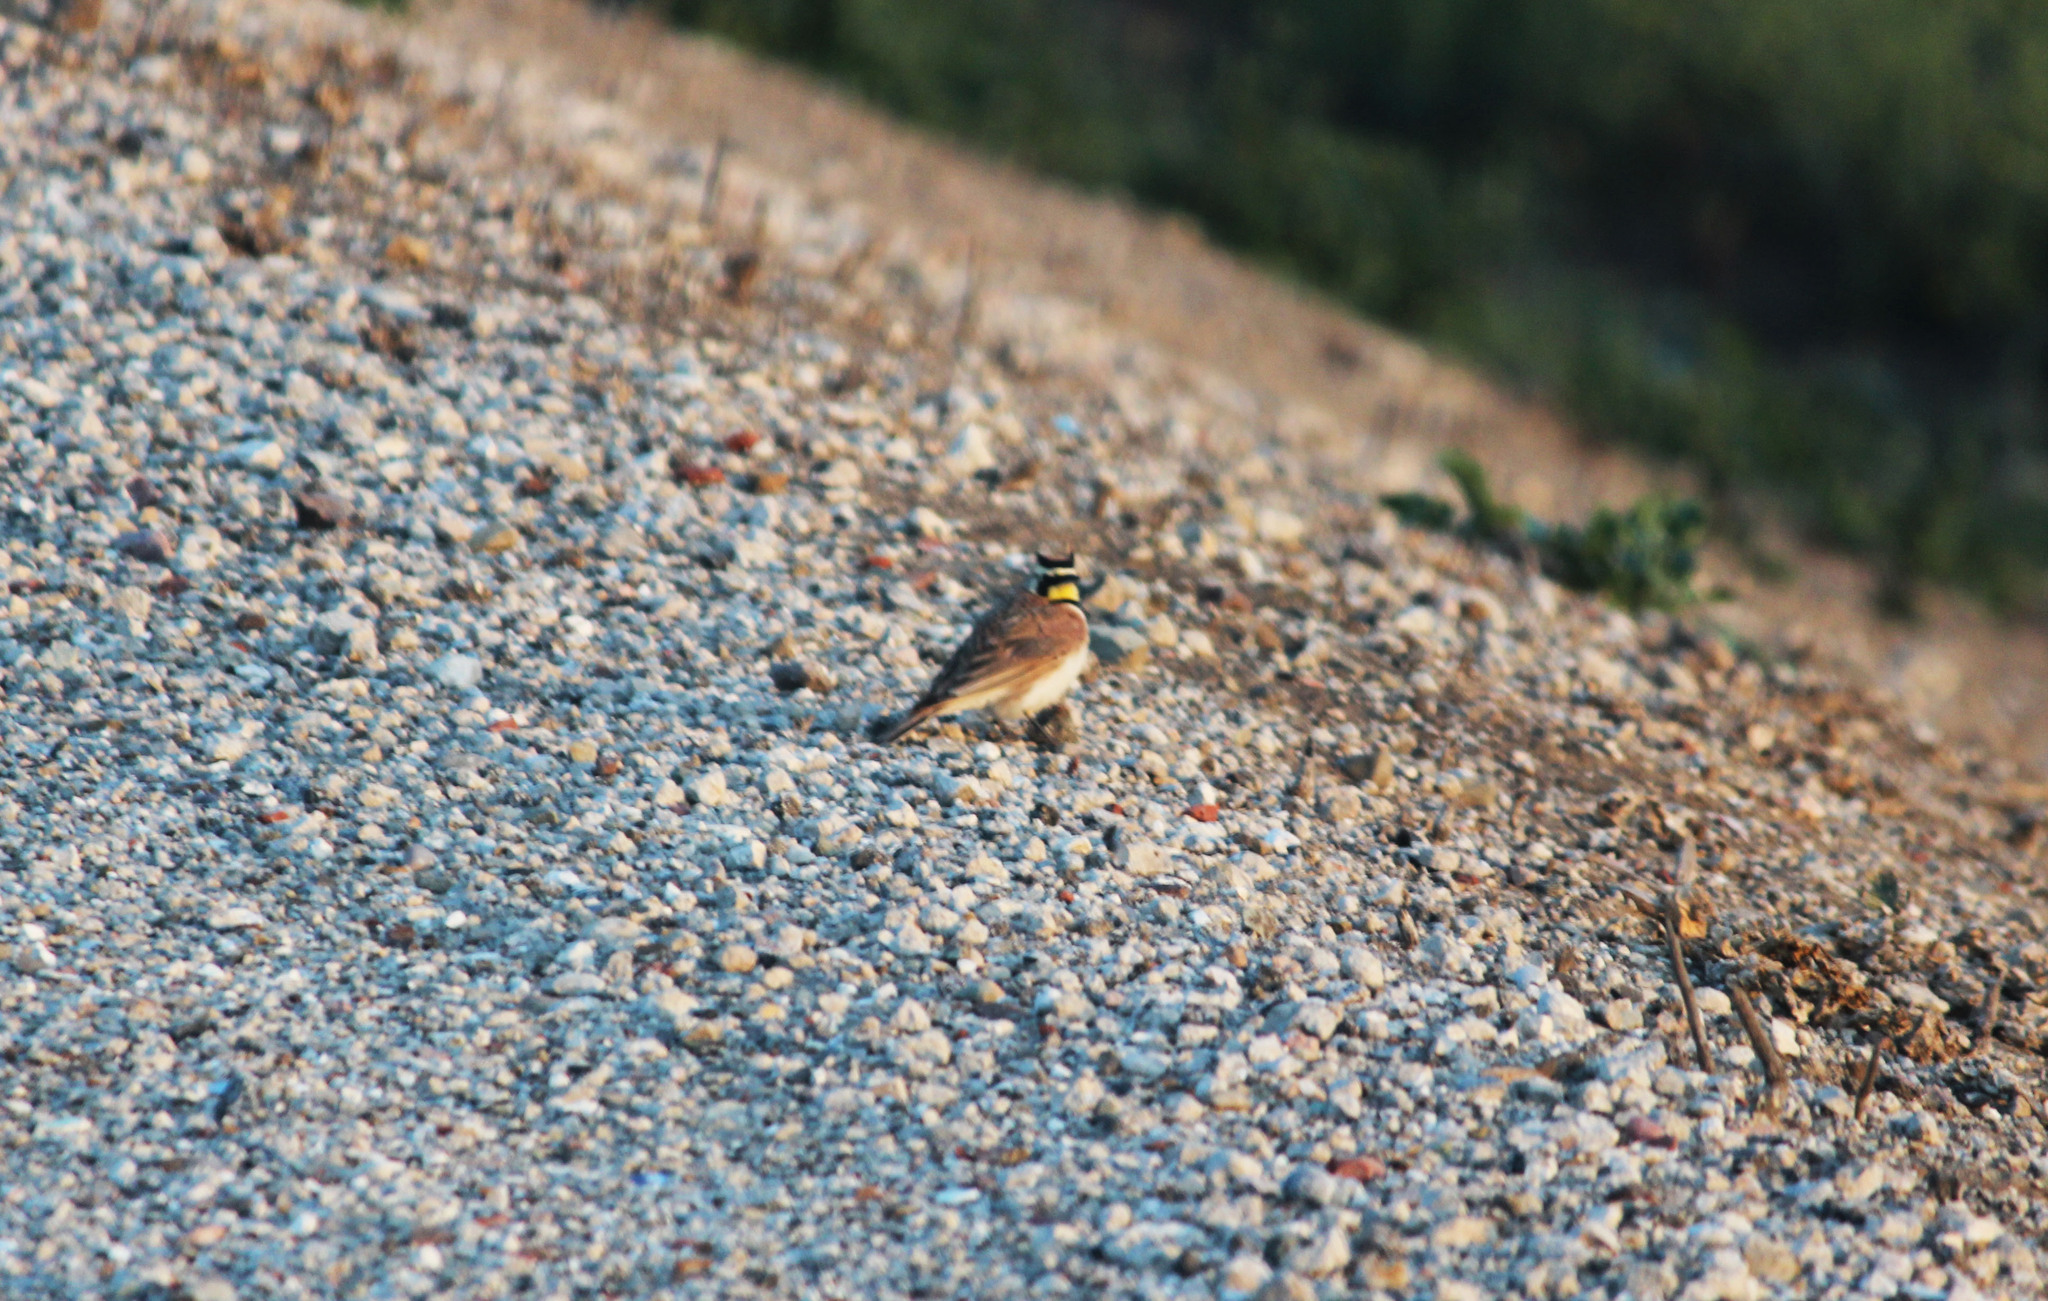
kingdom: Animalia
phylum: Chordata
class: Aves
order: Passeriformes
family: Alaudidae
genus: Eremophila
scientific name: Eremophila alpestris
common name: Horned lark
